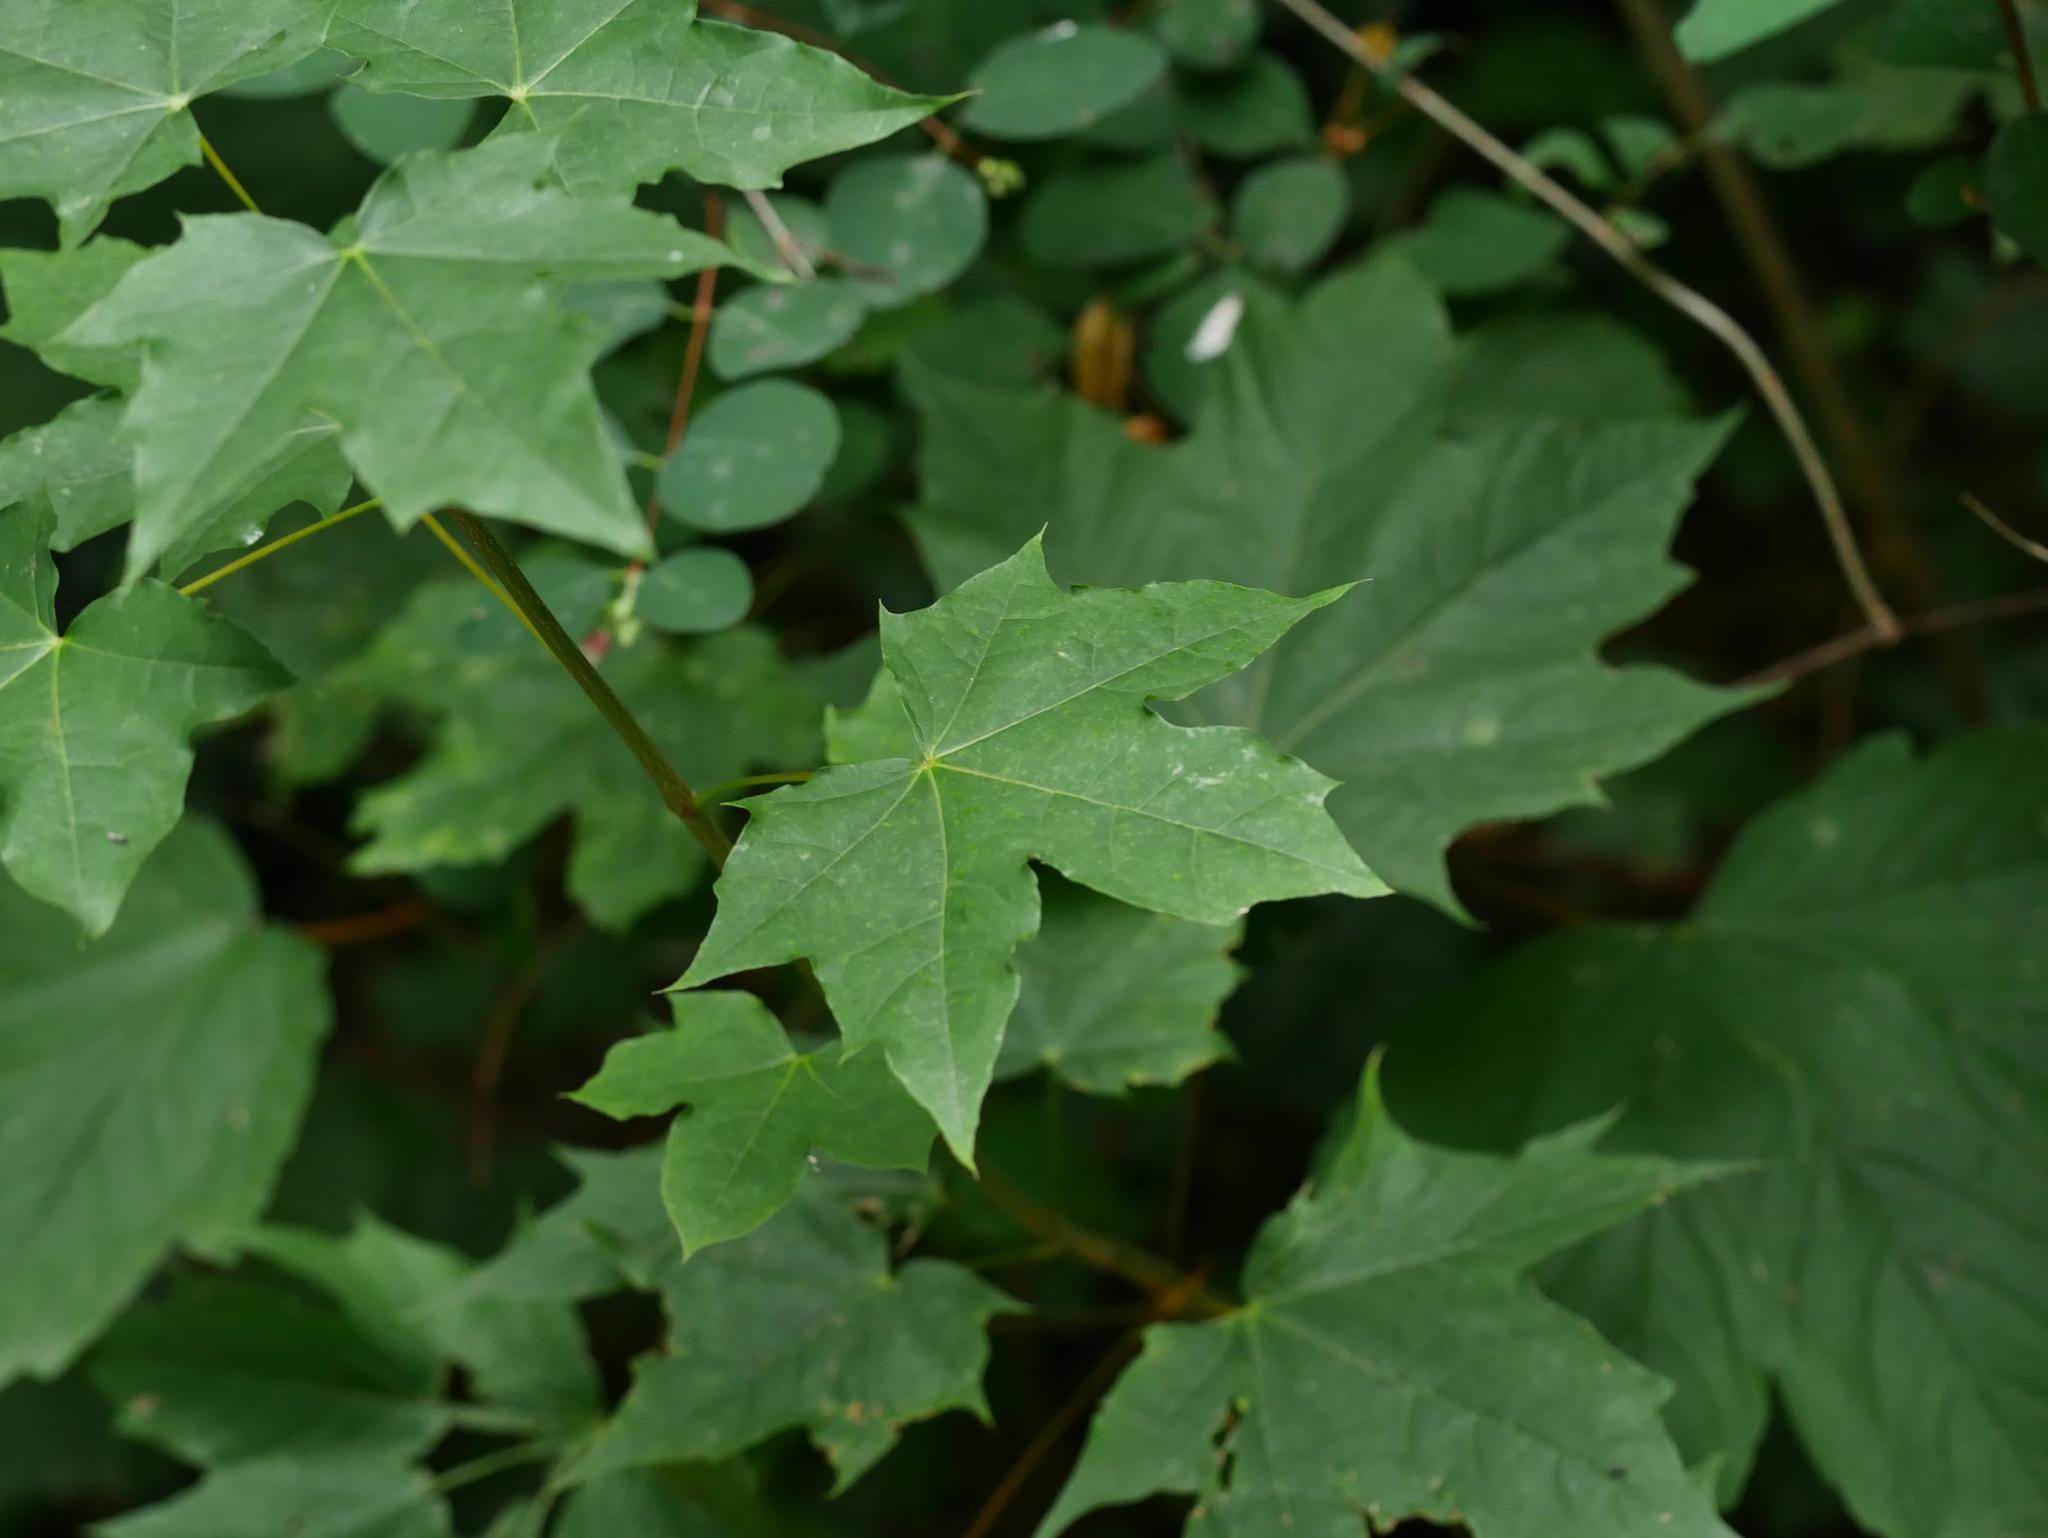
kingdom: Plantae
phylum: Tracheophyta
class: Magnoliopsida
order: Sapindales
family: Sapindaceae
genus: Acer
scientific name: Acer platanoides
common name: Norway maple
